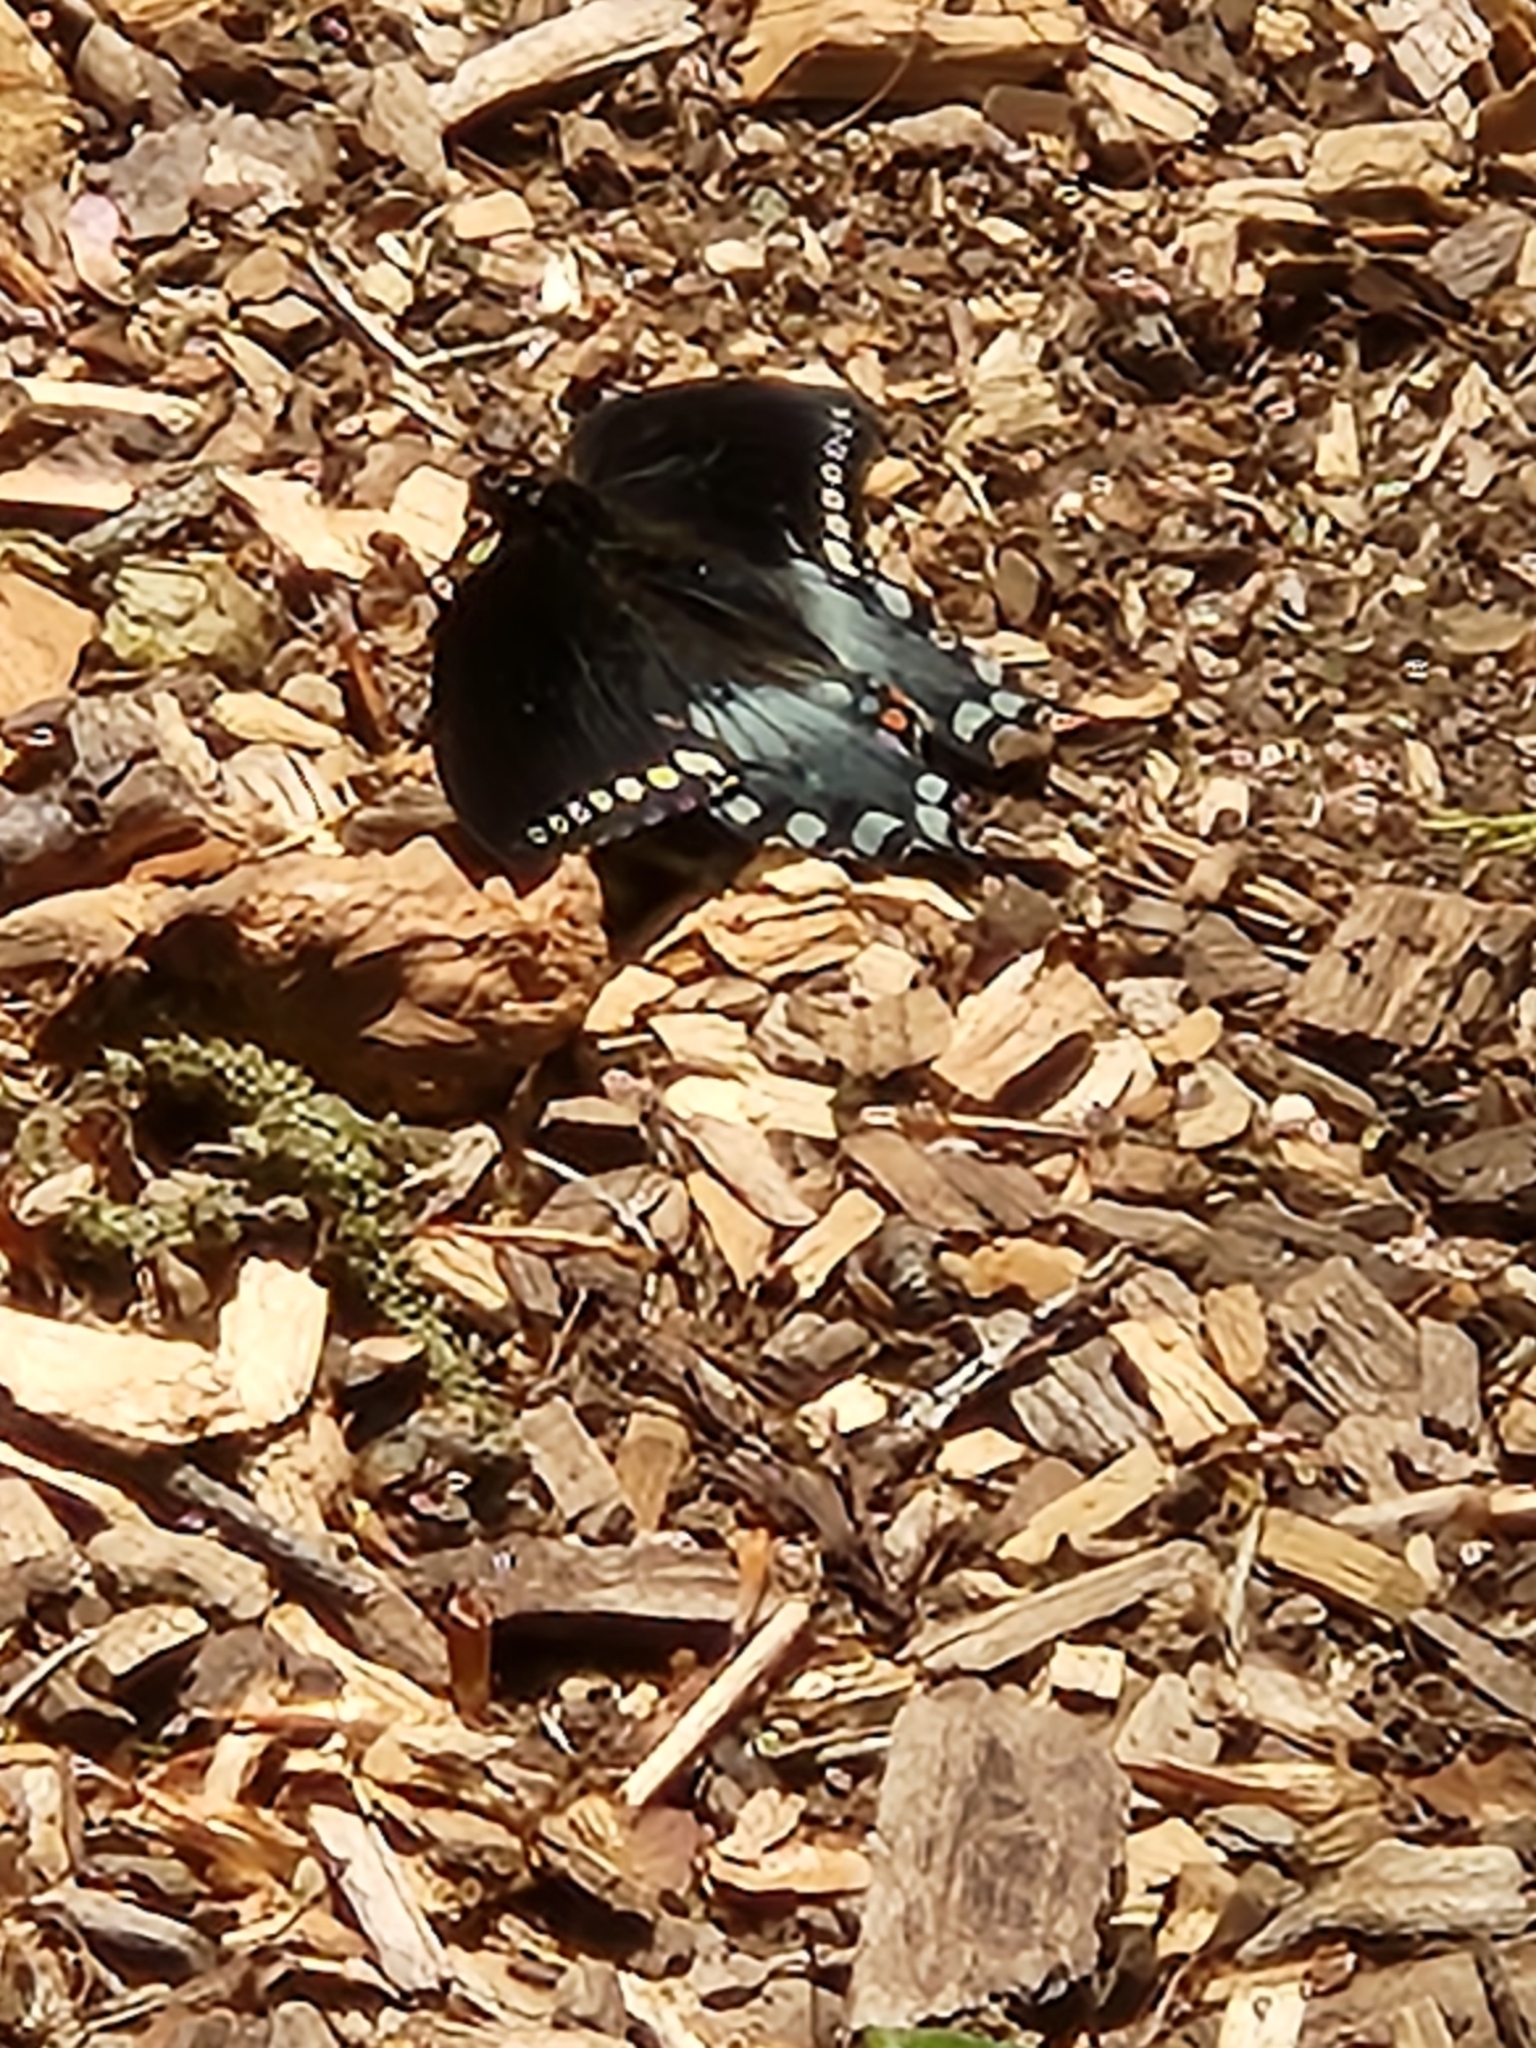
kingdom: Animalia
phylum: Arthropoda
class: Insecta
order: Lepidoptera
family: Papilionidae
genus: Papilio
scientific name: Papilio troilus
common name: Spicebush swallowtail
